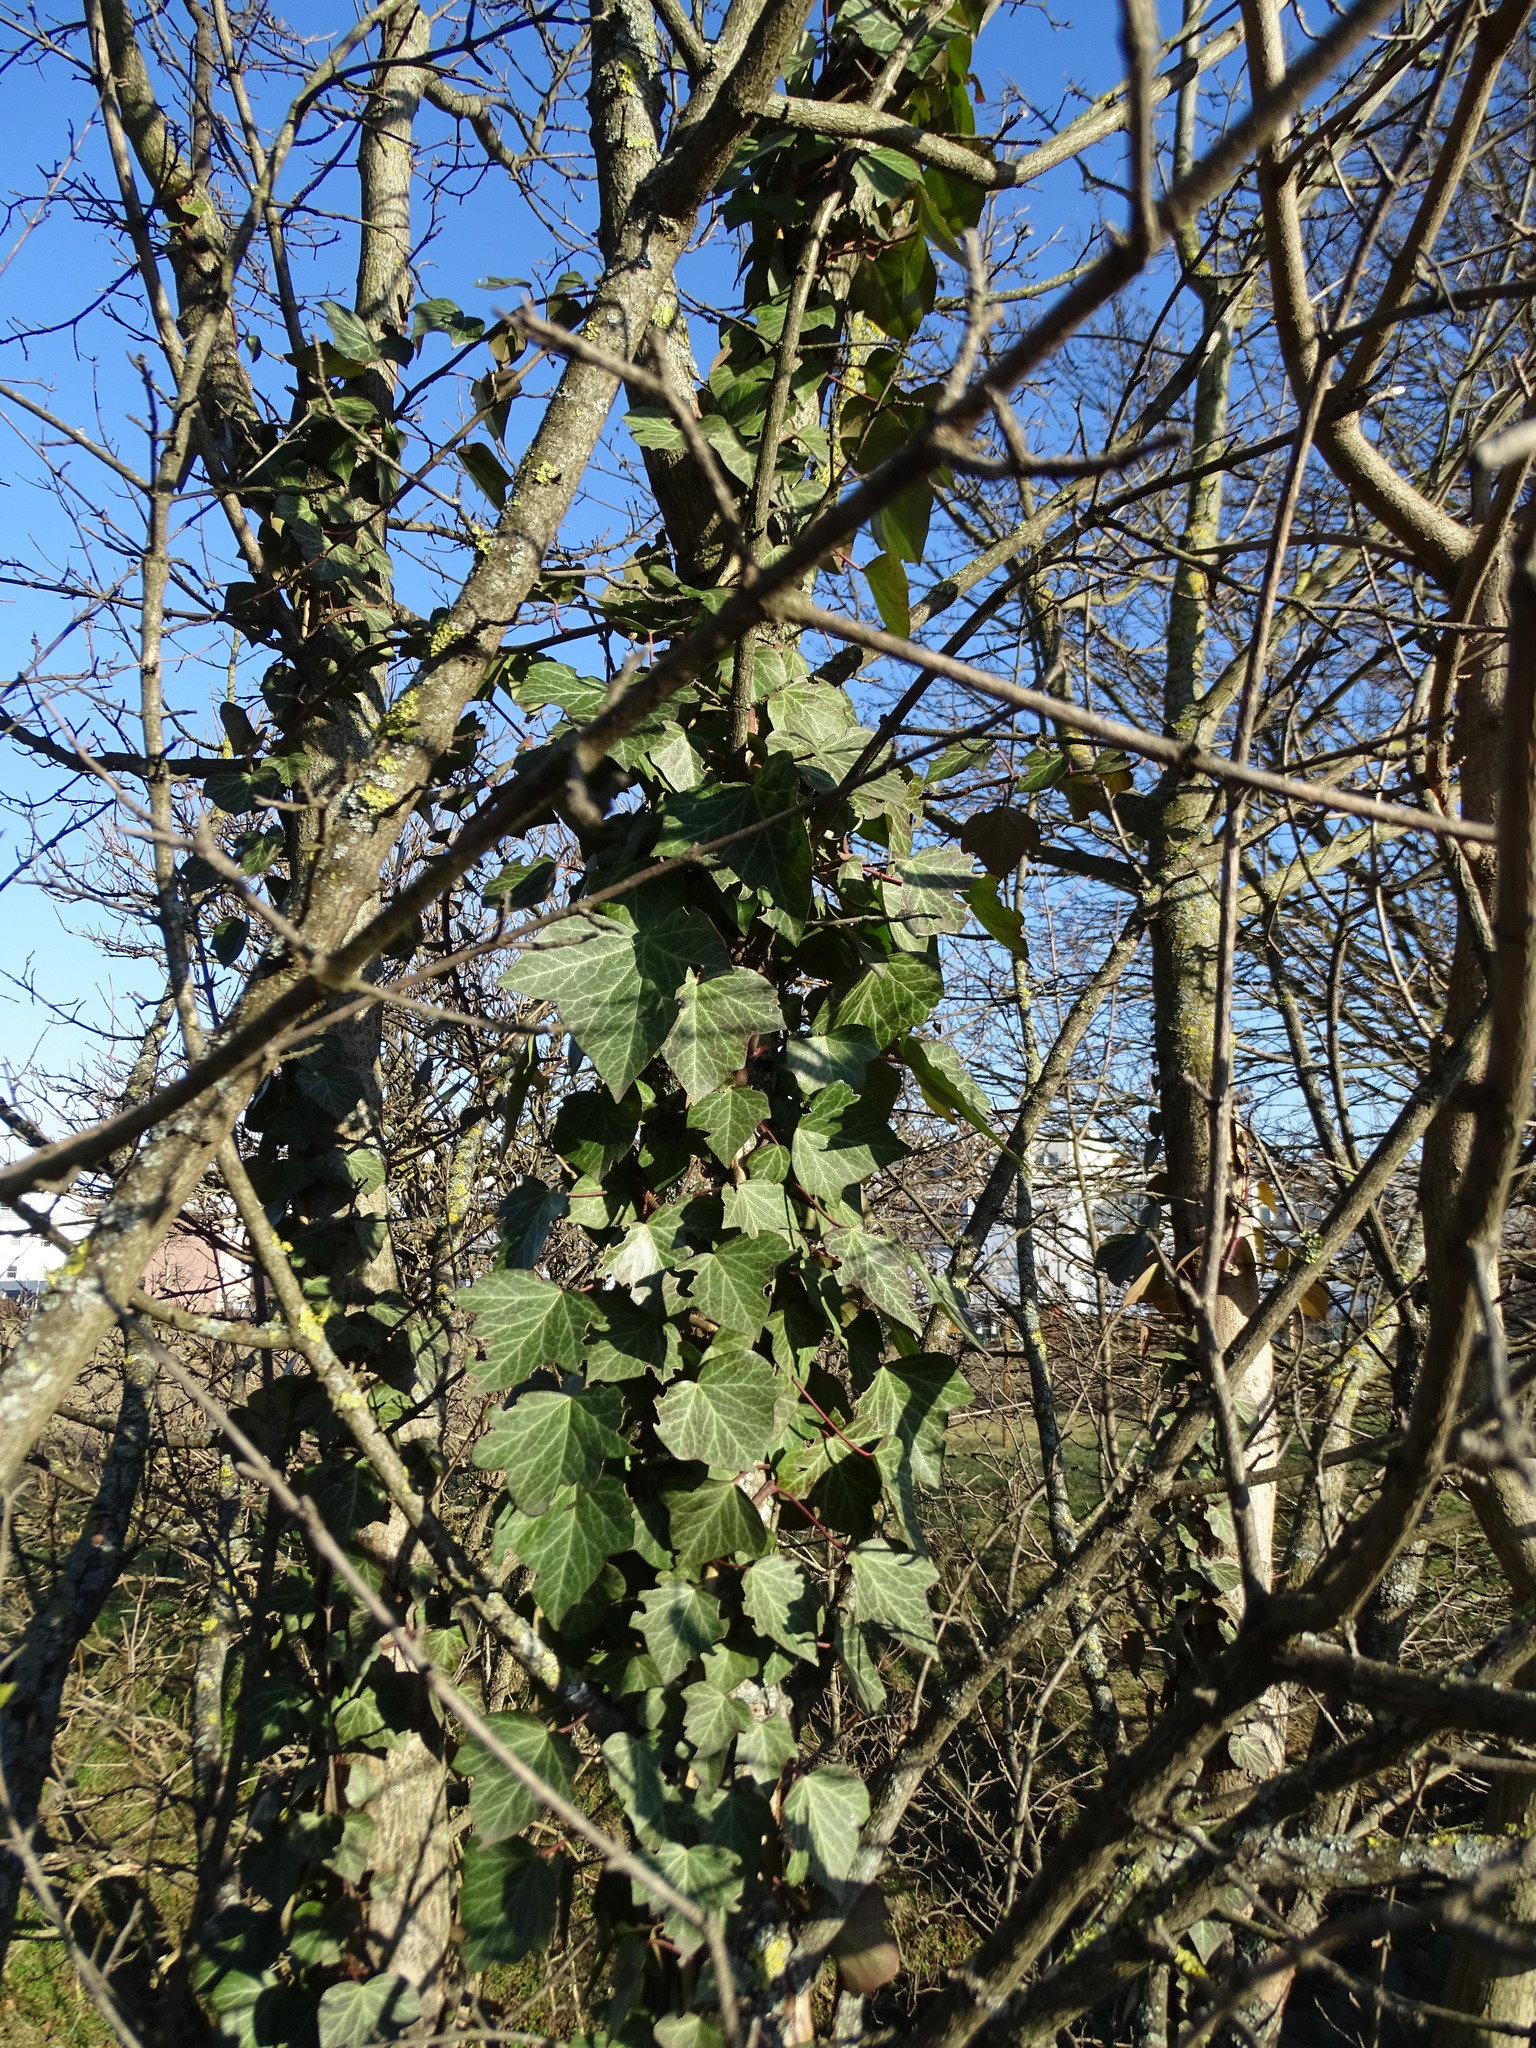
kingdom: Plantae
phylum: Tracheophyta
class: Magnoliopsida
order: Apiales
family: Araliaceae
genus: Hedera
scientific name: Hedera helix
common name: Ivy
